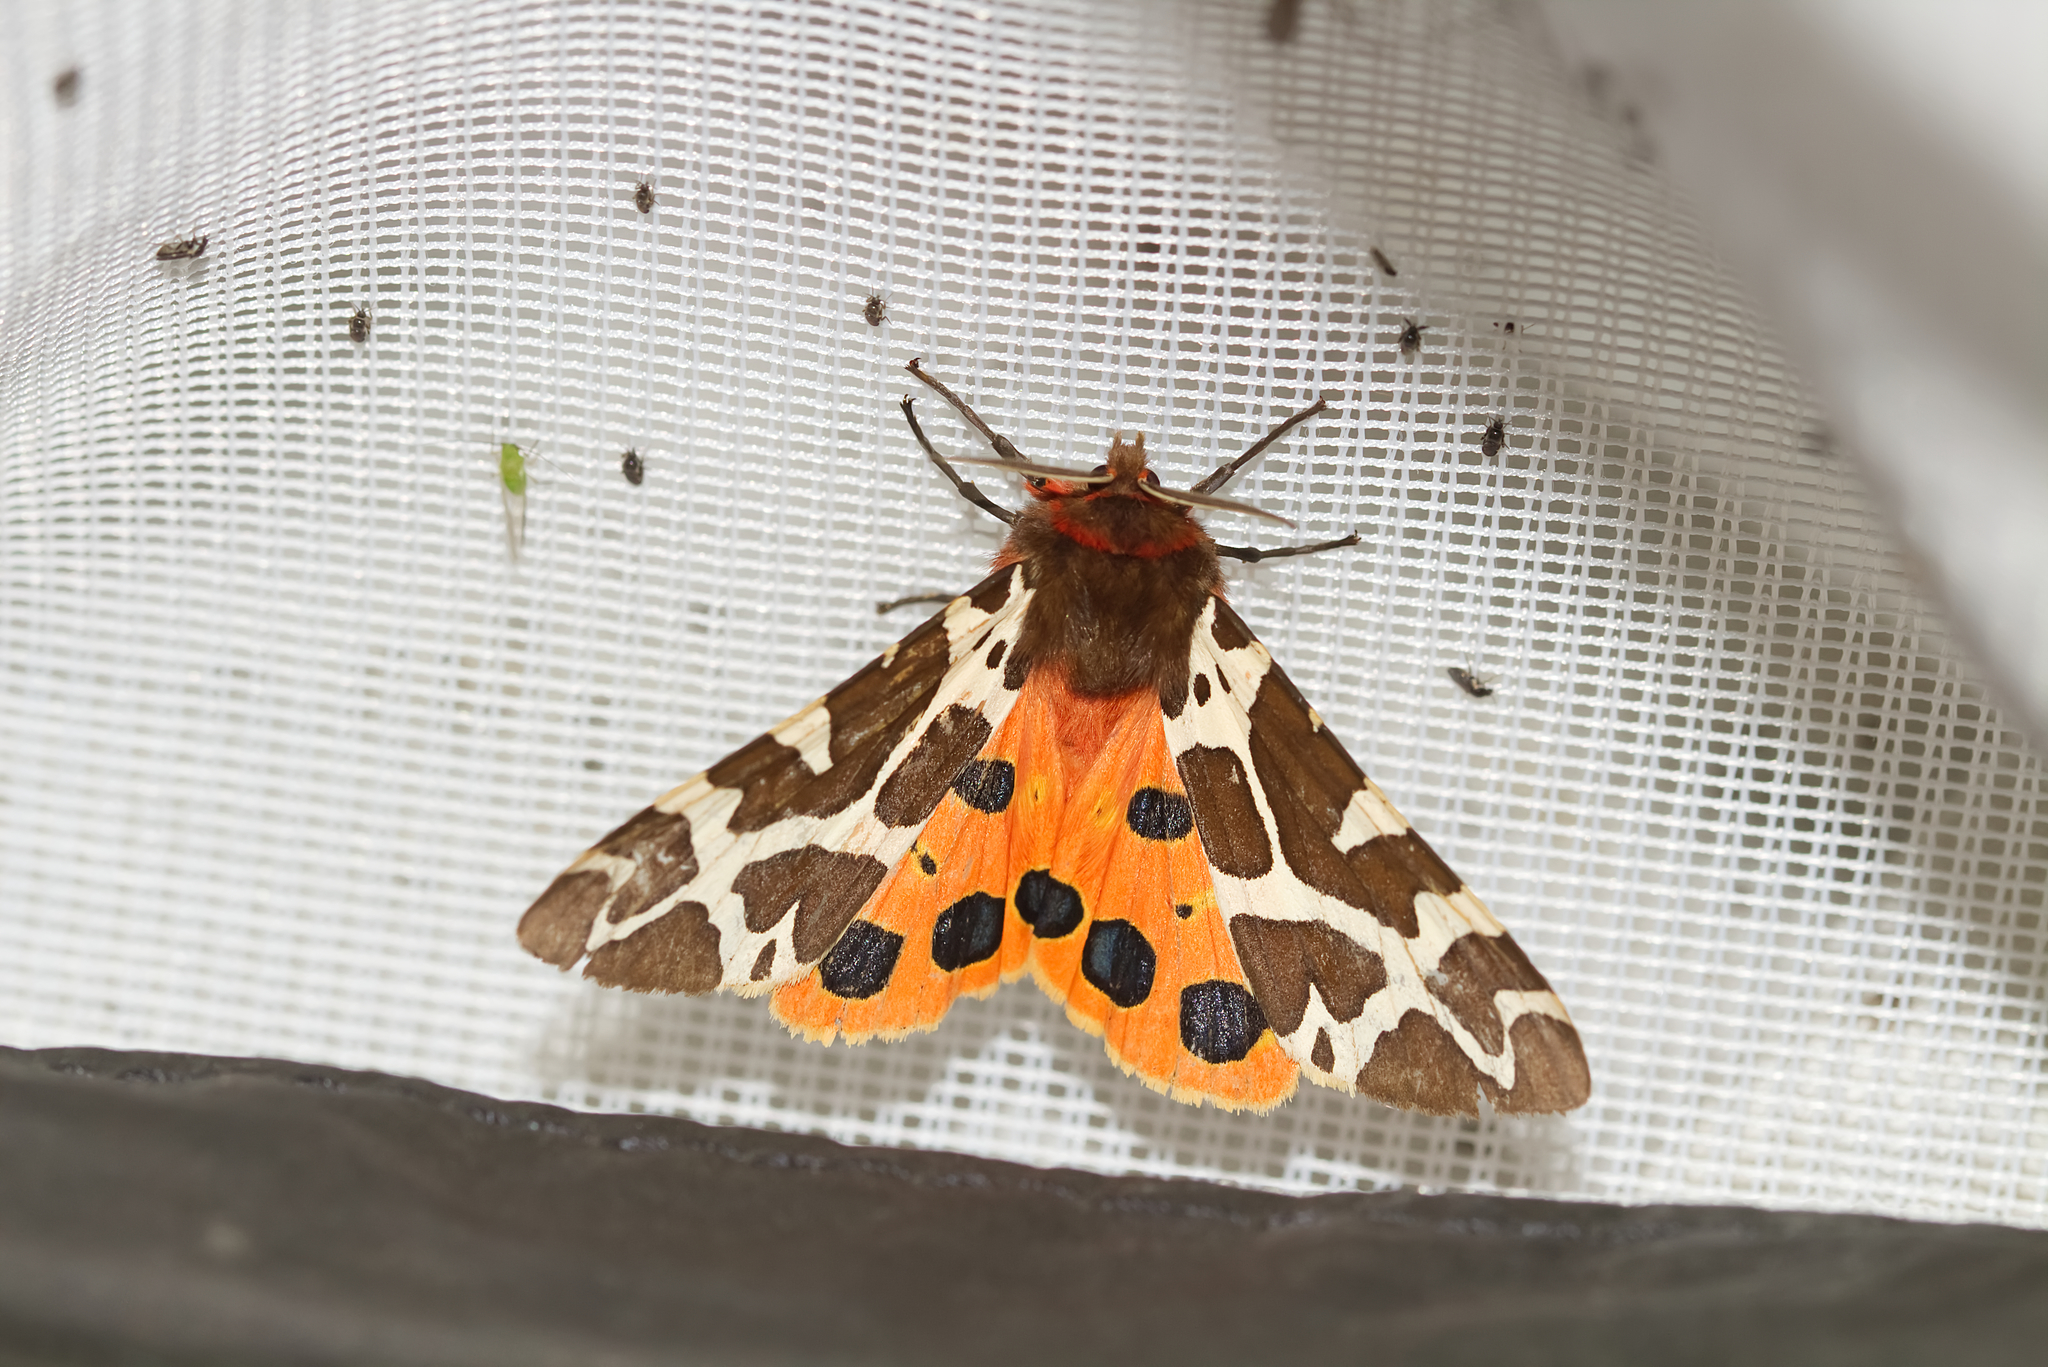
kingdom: Animalia
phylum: Arthropoda
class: Insecta
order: Lepidoptera
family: Erebidae
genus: Arctia
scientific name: Arctia caja
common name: Garden tiger
